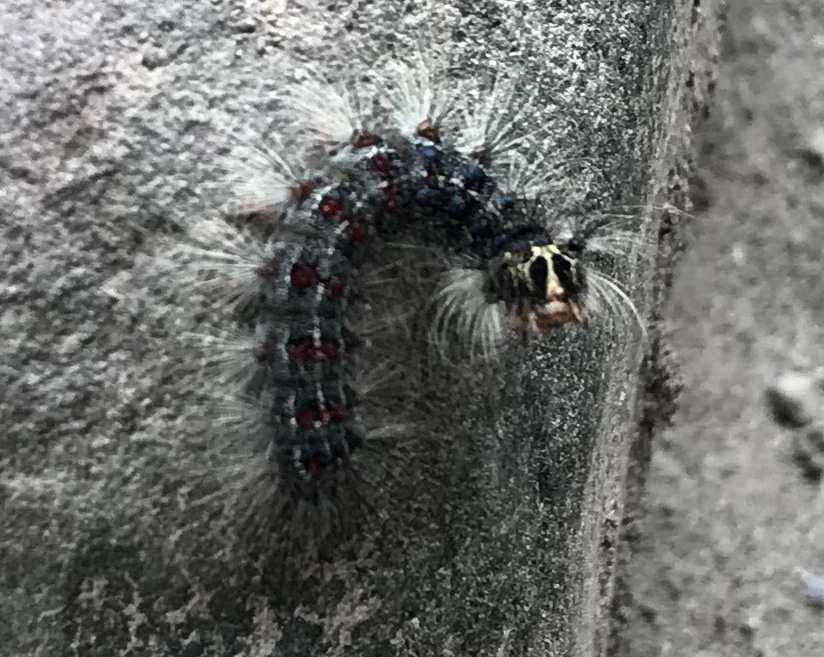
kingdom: Animalia
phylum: Arthropoda
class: Insecta
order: Lepidoptera
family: Erebidae
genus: Lymantria
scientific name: Lymantria dispar
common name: Gypsy moth
